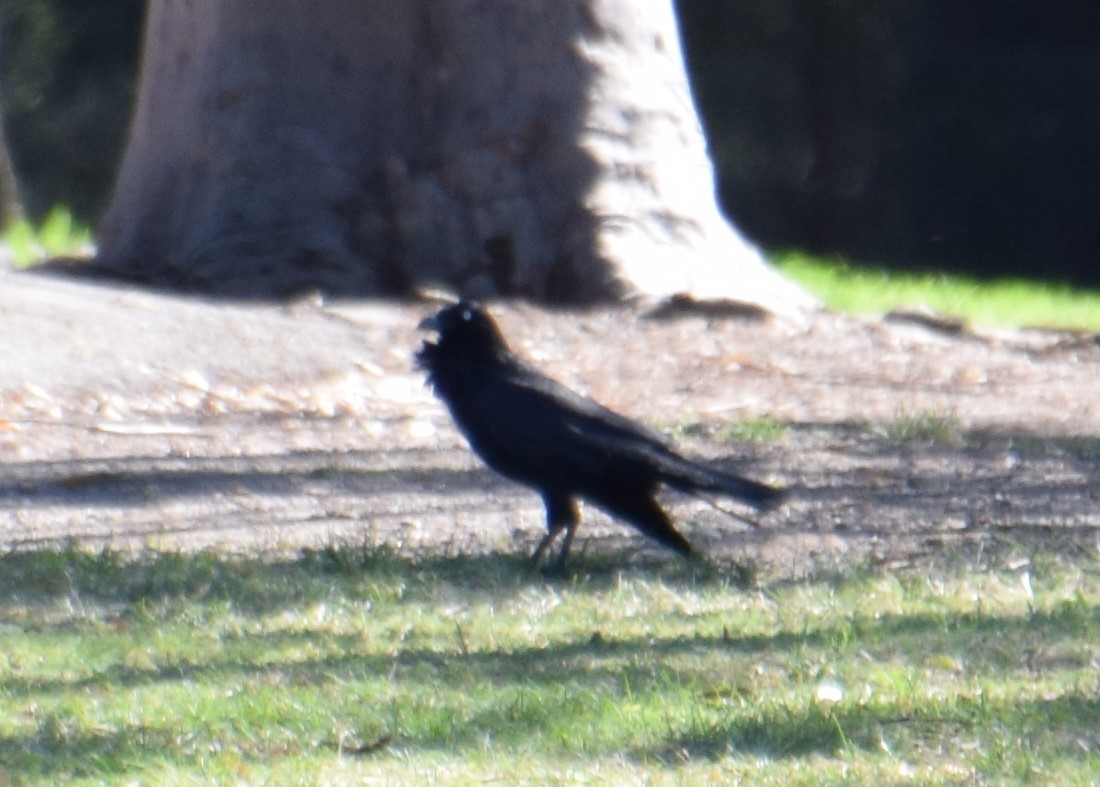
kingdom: Animalia
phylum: Chordata
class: Aves
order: Passeriformes
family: Corvidae
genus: Corvus
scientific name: Corvus coronoides
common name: Australian raven
